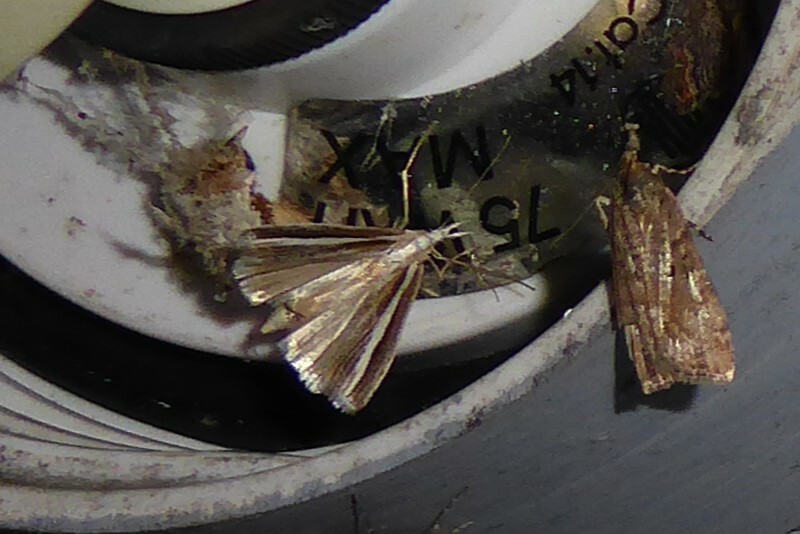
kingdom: Animalia
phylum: Arthropoda
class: Insecta
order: Lepidoptera
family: Crambidae
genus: Orocrambus
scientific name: Orocrambus vittellus
